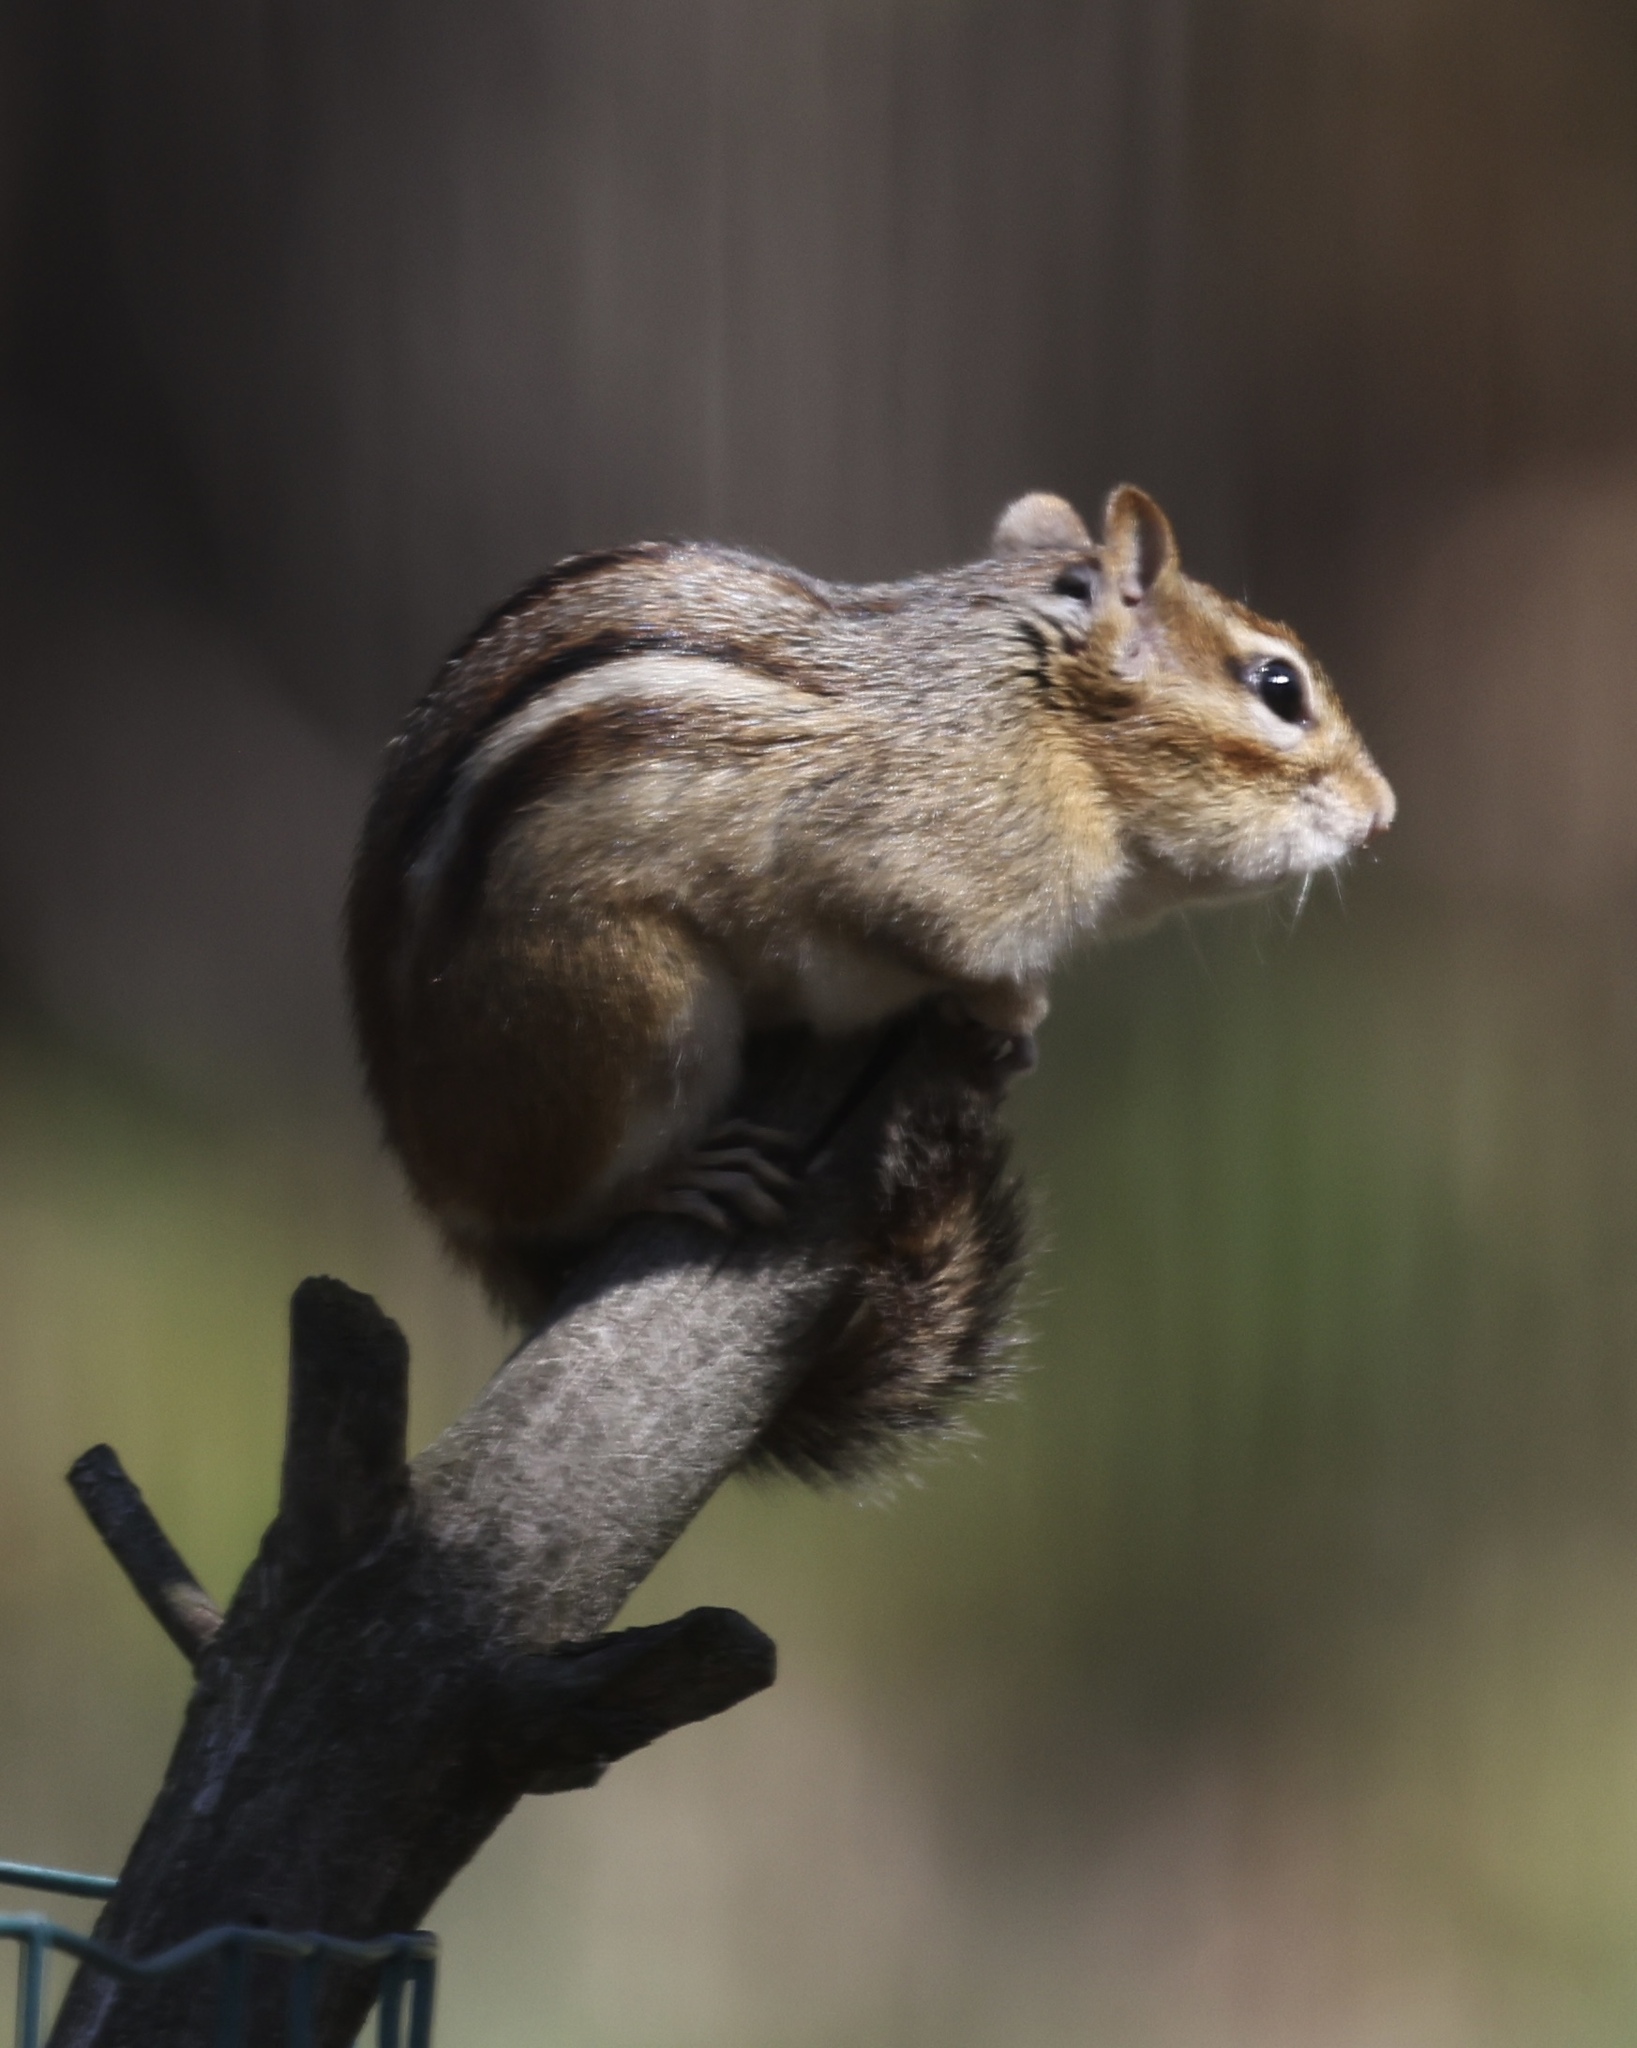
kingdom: Animalia
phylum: Chordata
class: Mammalia
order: Rodentia
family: Sciuridae
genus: Tamias
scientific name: Tamias striatus
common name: Eastern chipmunk
